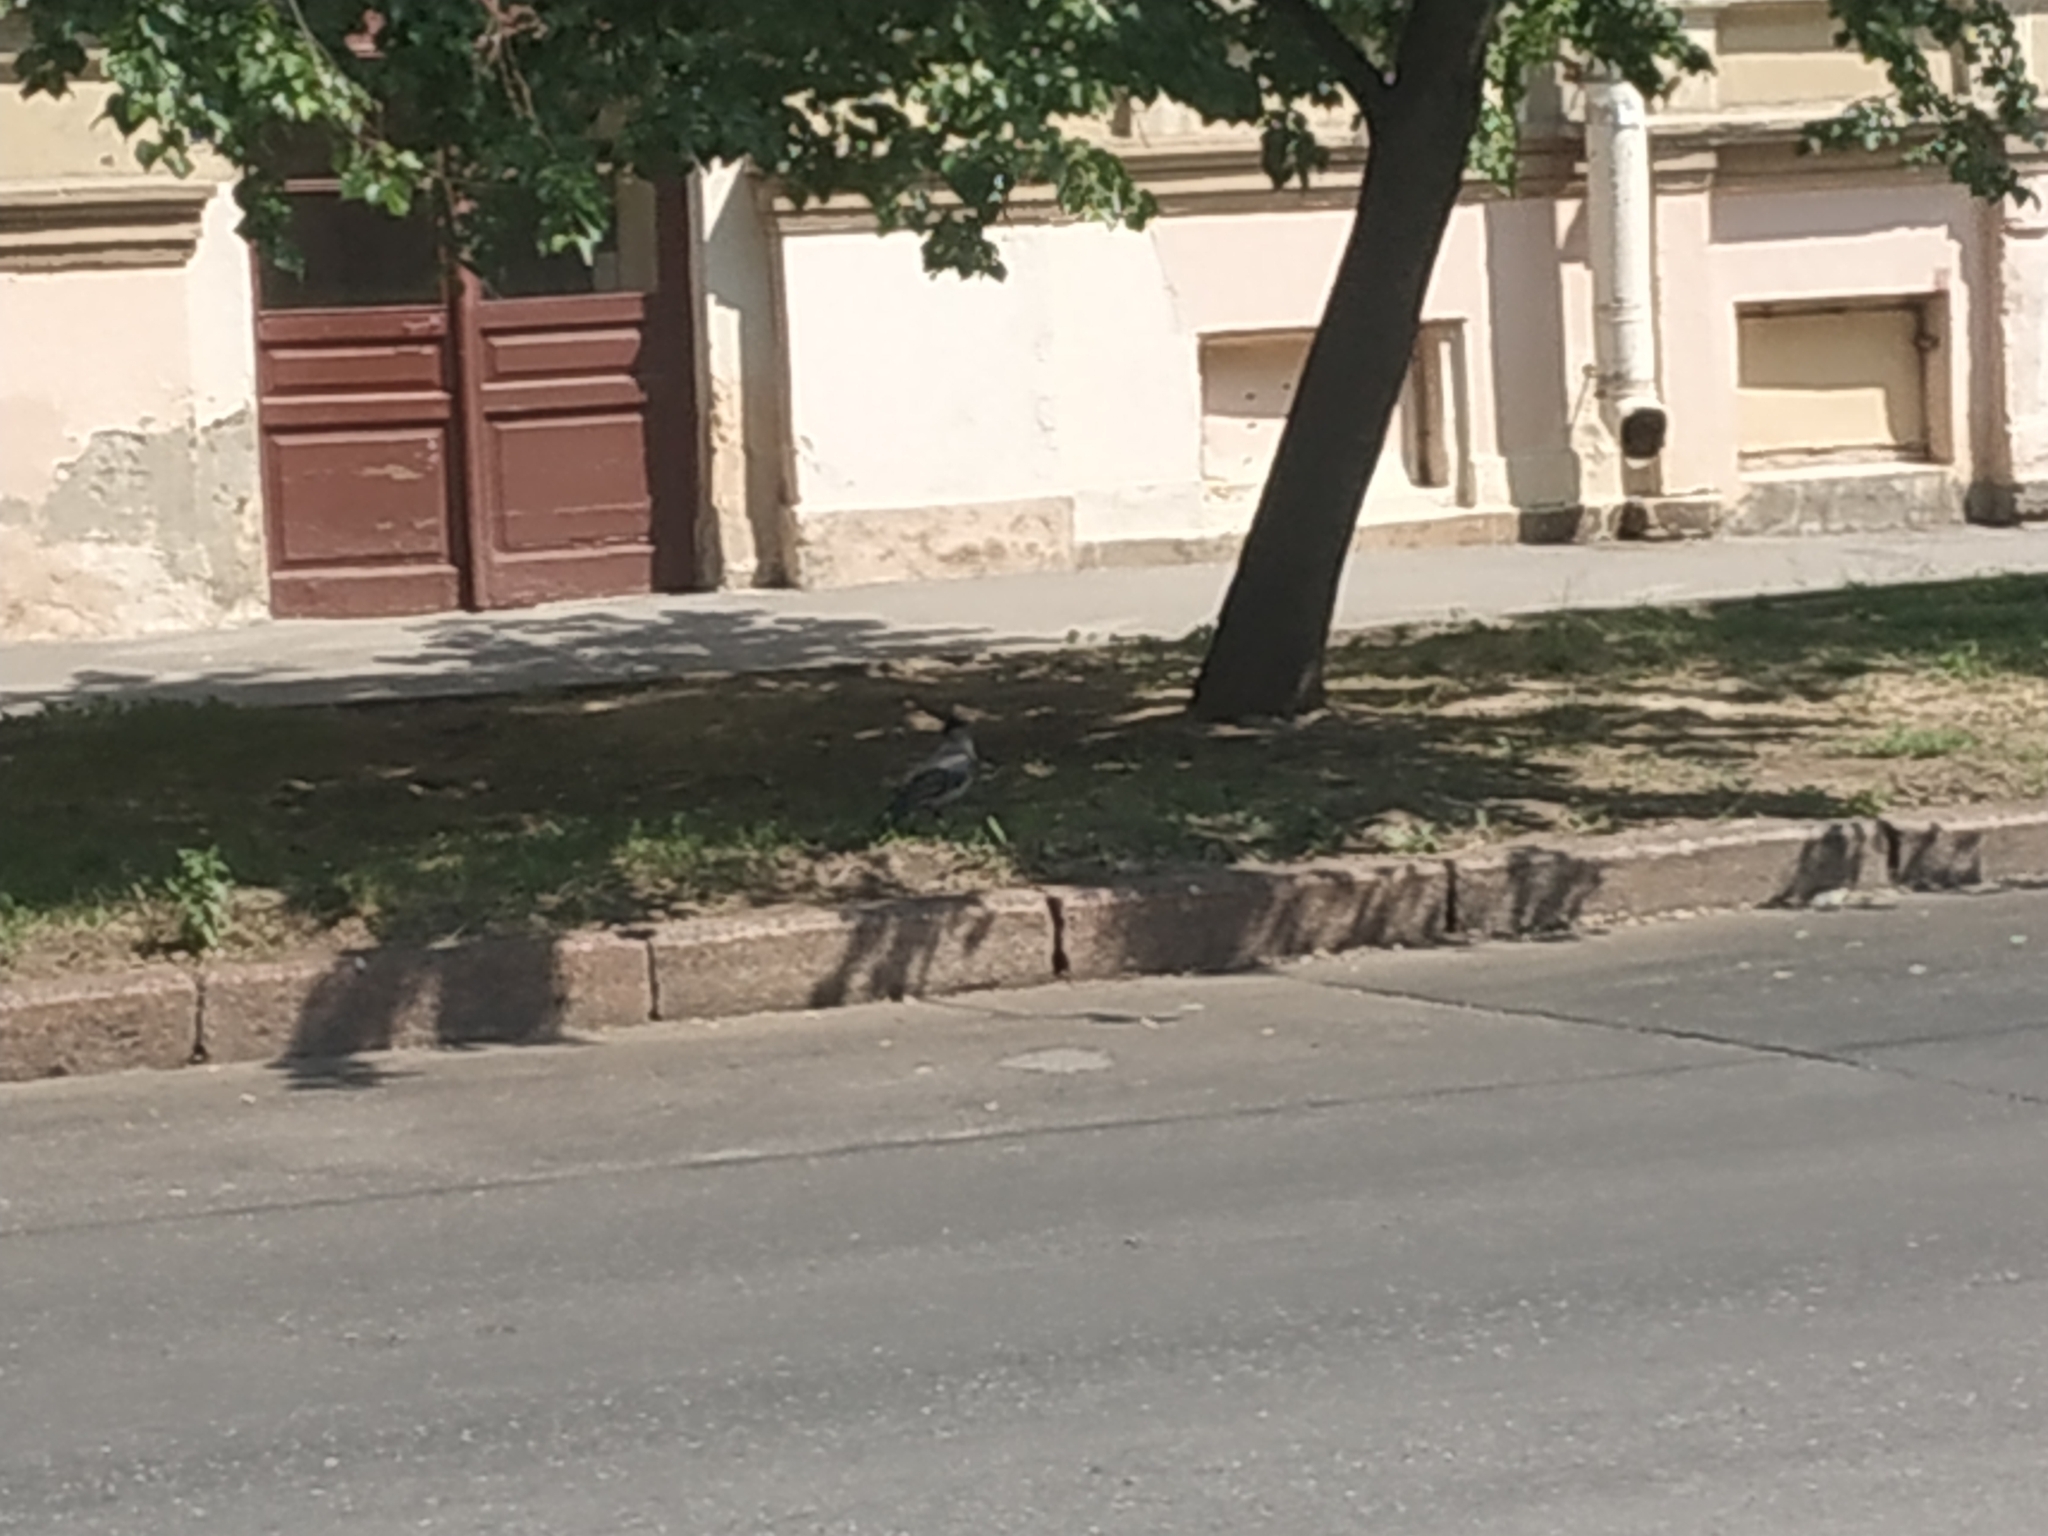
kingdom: Animalia
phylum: Chordata
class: Aves
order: Passeriformes
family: Corvidae
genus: Corvus
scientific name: Corvus cornix
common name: Hooded crow
